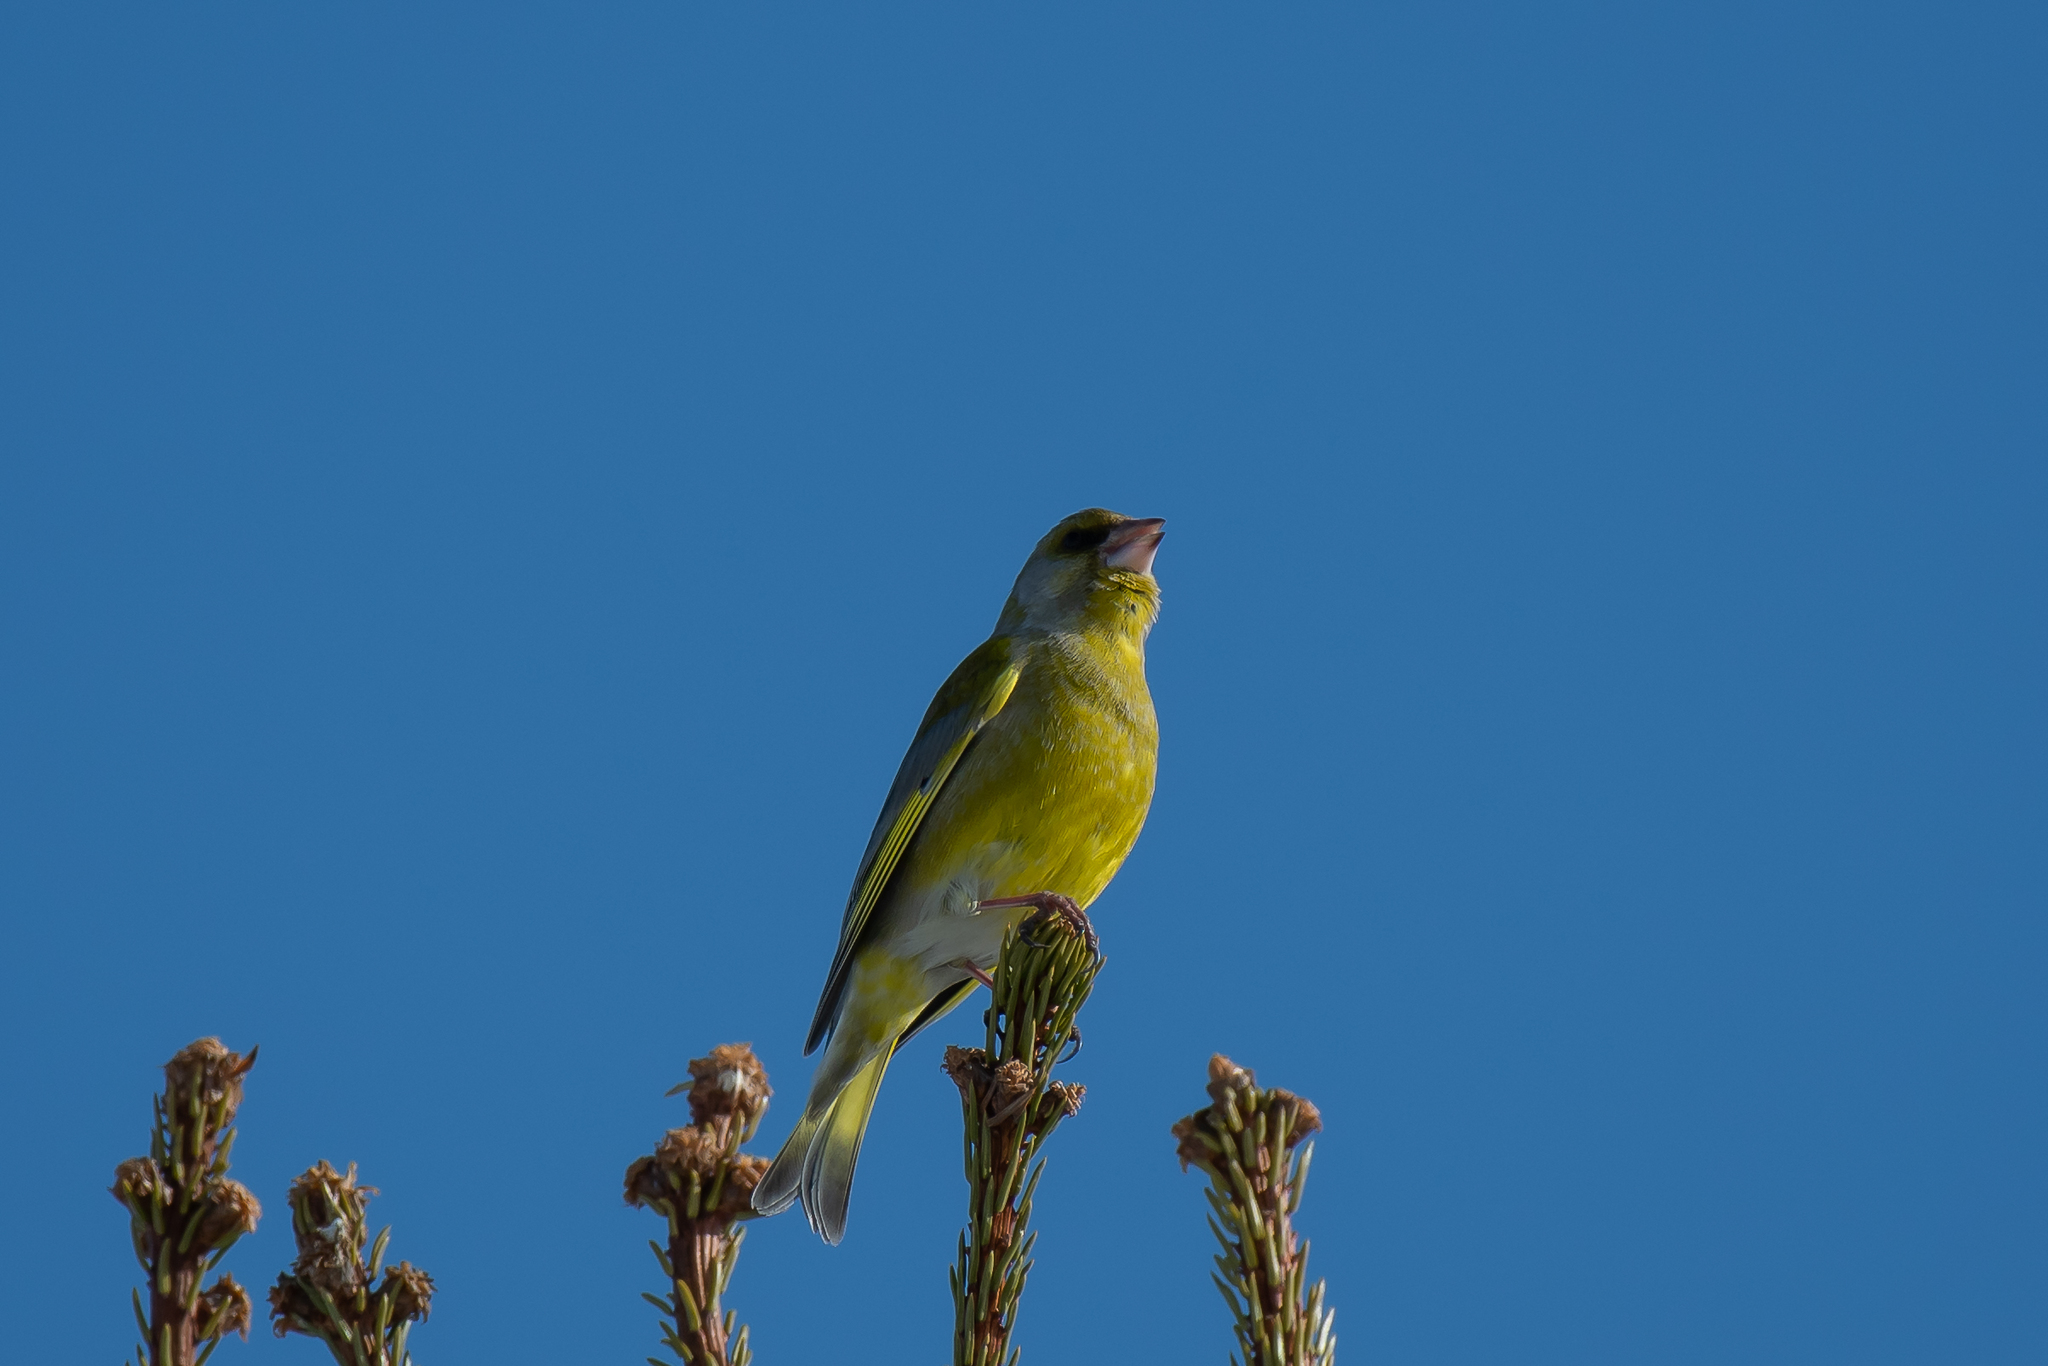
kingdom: Plantae
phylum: Tracheophyta
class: Liliopsida
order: Poales
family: Poaceae
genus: Chloris
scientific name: Chloris chloris
